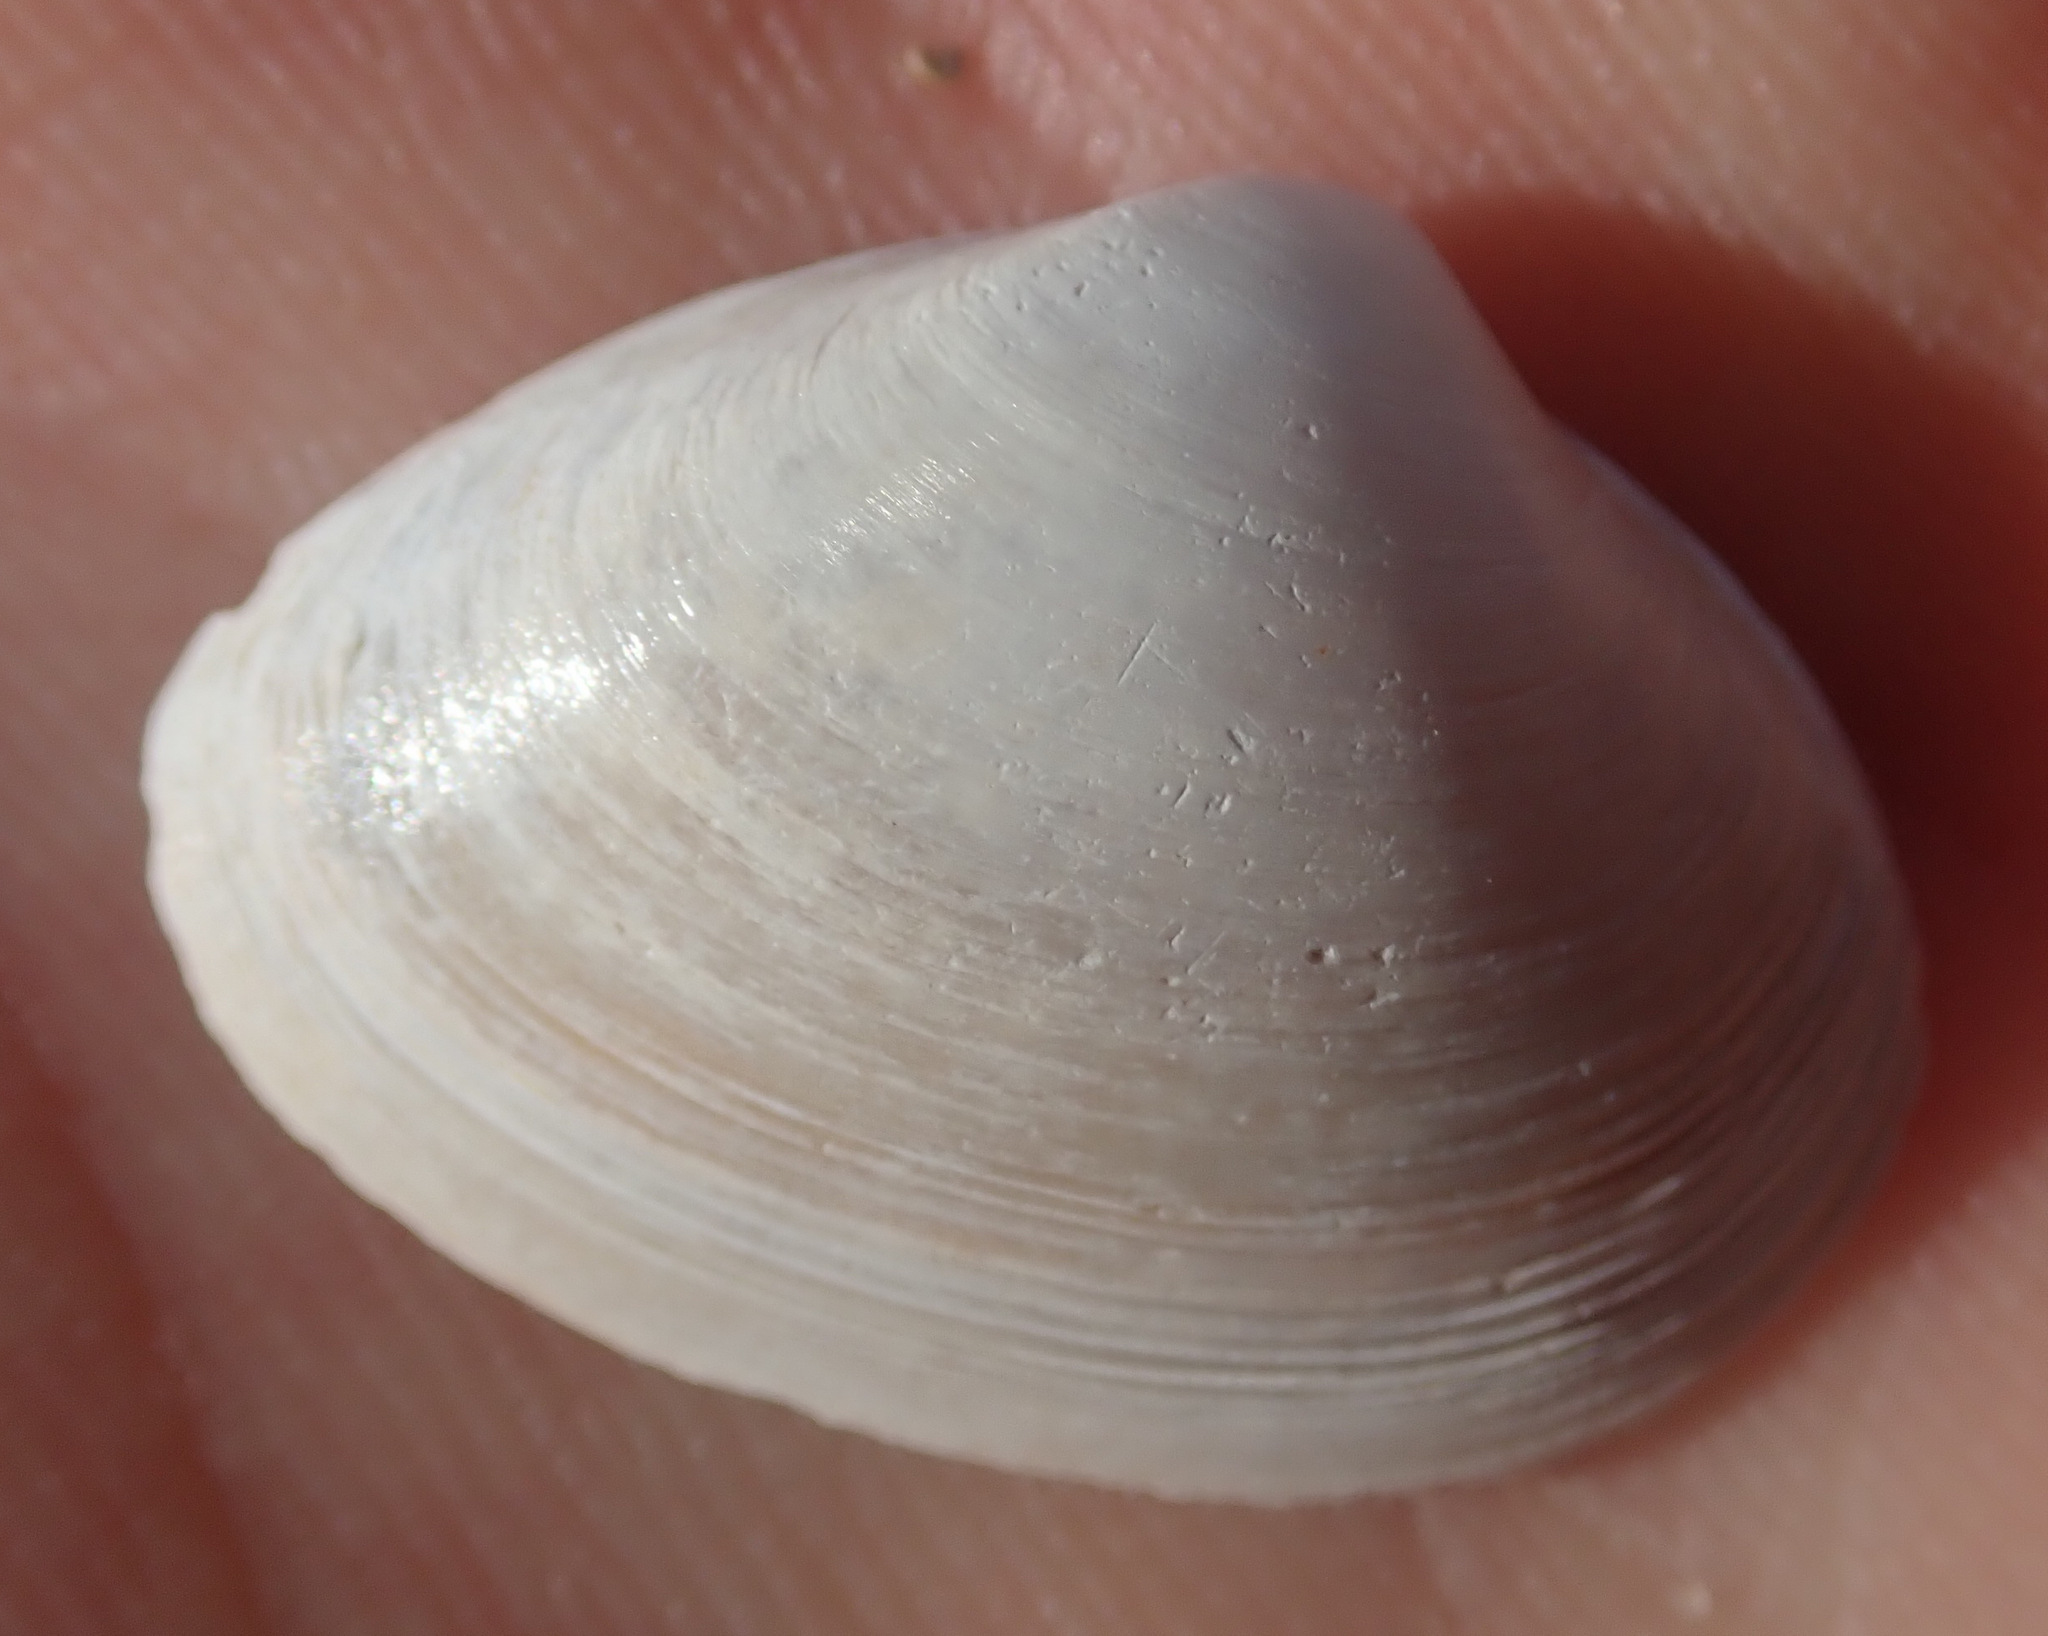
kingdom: Animalia
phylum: Mollusca
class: Bivalvia
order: Venerida
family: Mactridae
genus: Spisula
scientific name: Spisula subtruncata
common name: Cut trough shell
